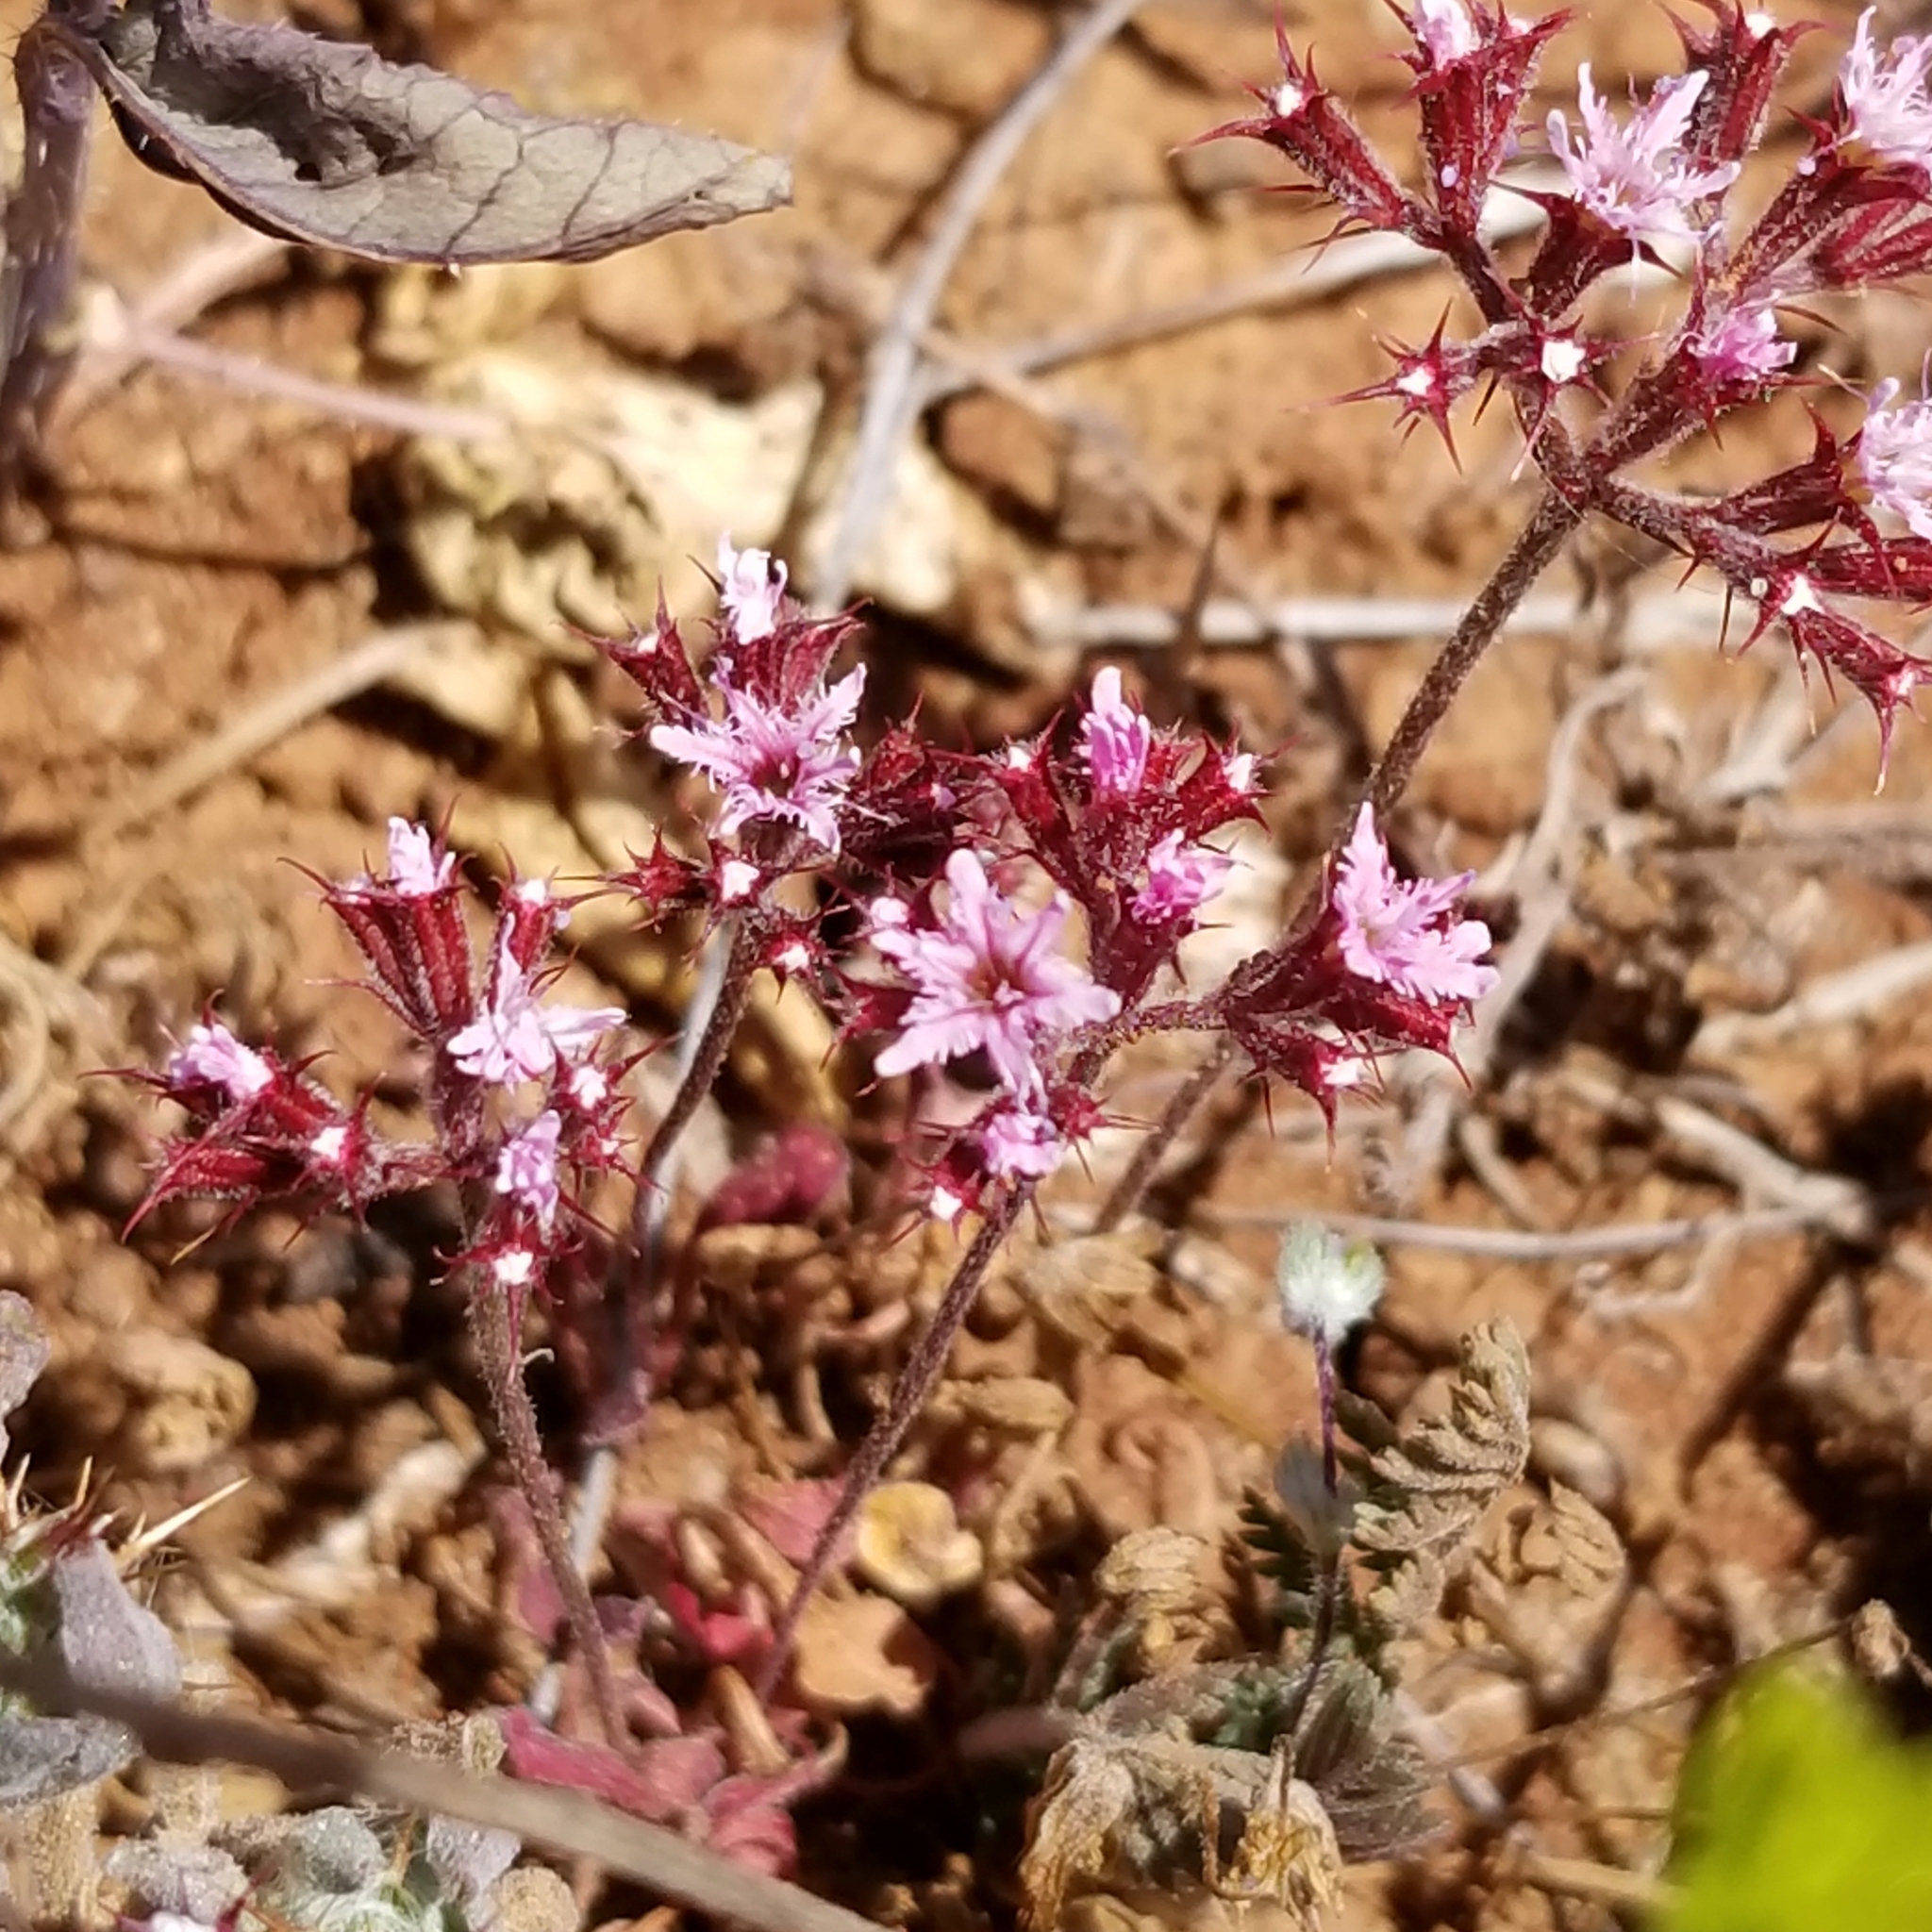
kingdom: Plantae
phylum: Tracheophyta
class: Magnoliopsida
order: Caryophyllales
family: Polygonaceae
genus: Chorizanthe
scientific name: Chorizanthe fimbriata
